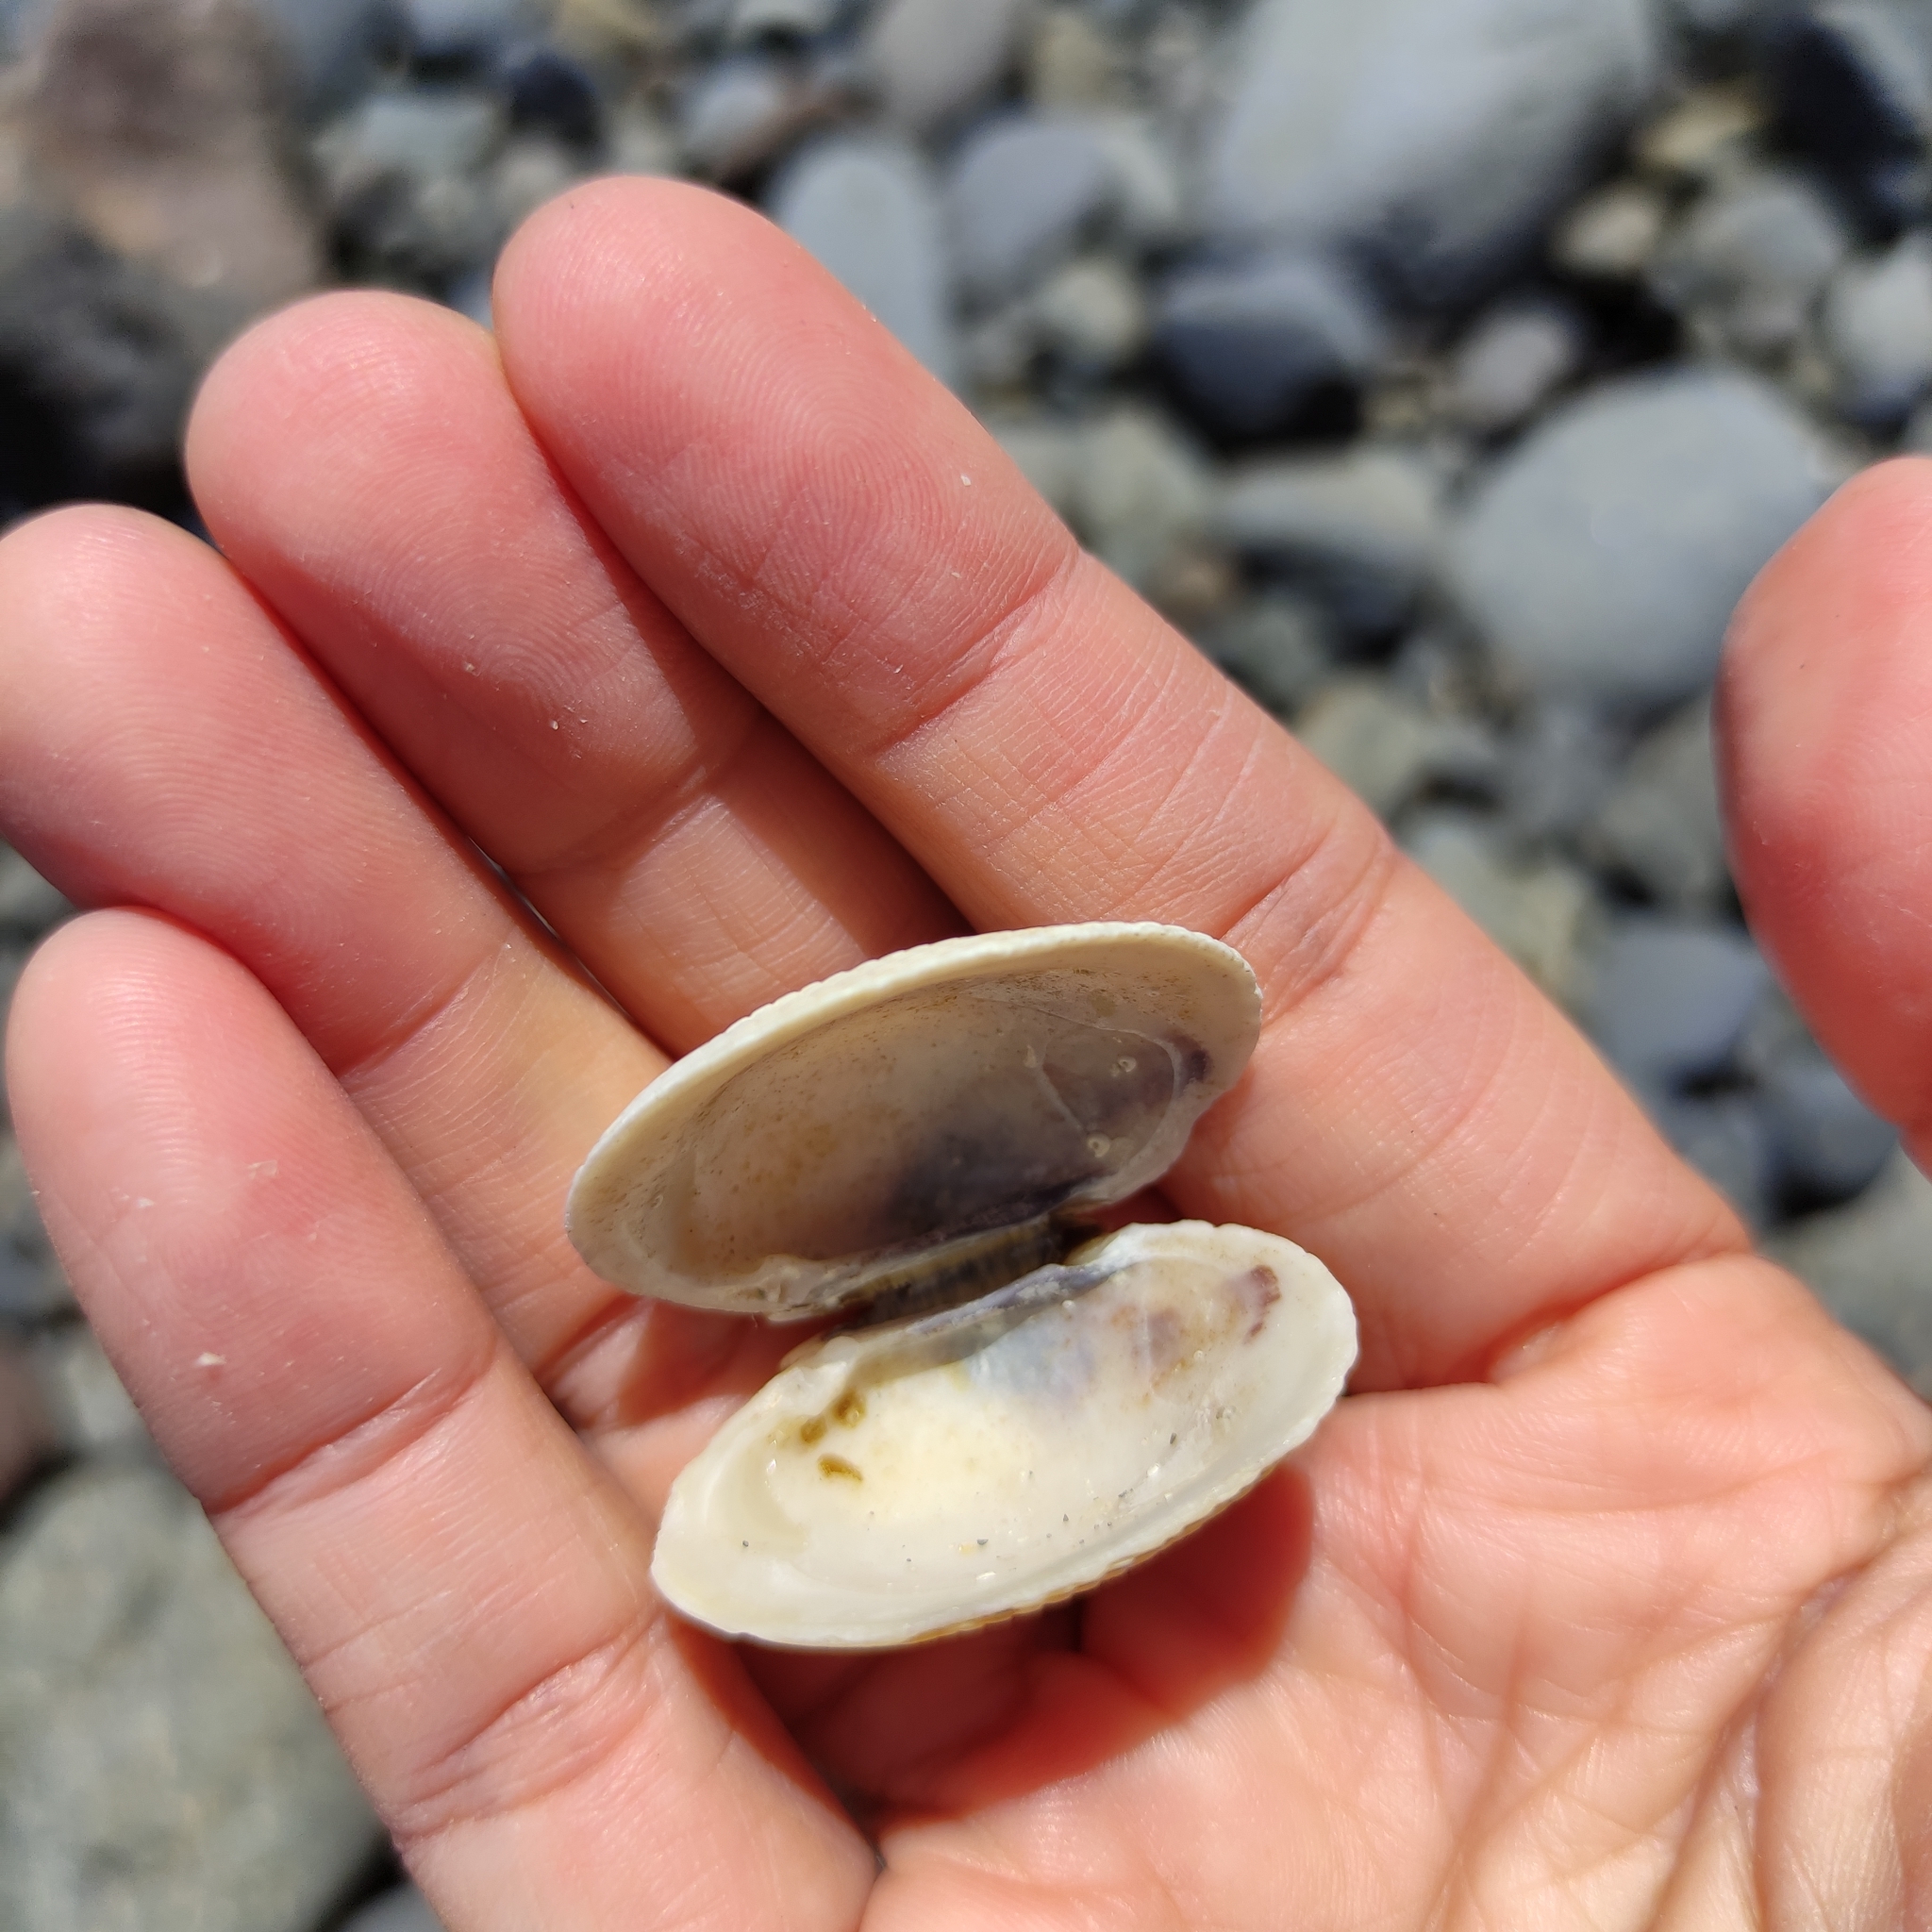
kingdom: Animalia
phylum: Mollusca
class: Bivalvia
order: Venerida
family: Veneridae
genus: Leukoma
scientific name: Leukoma crassicosta
